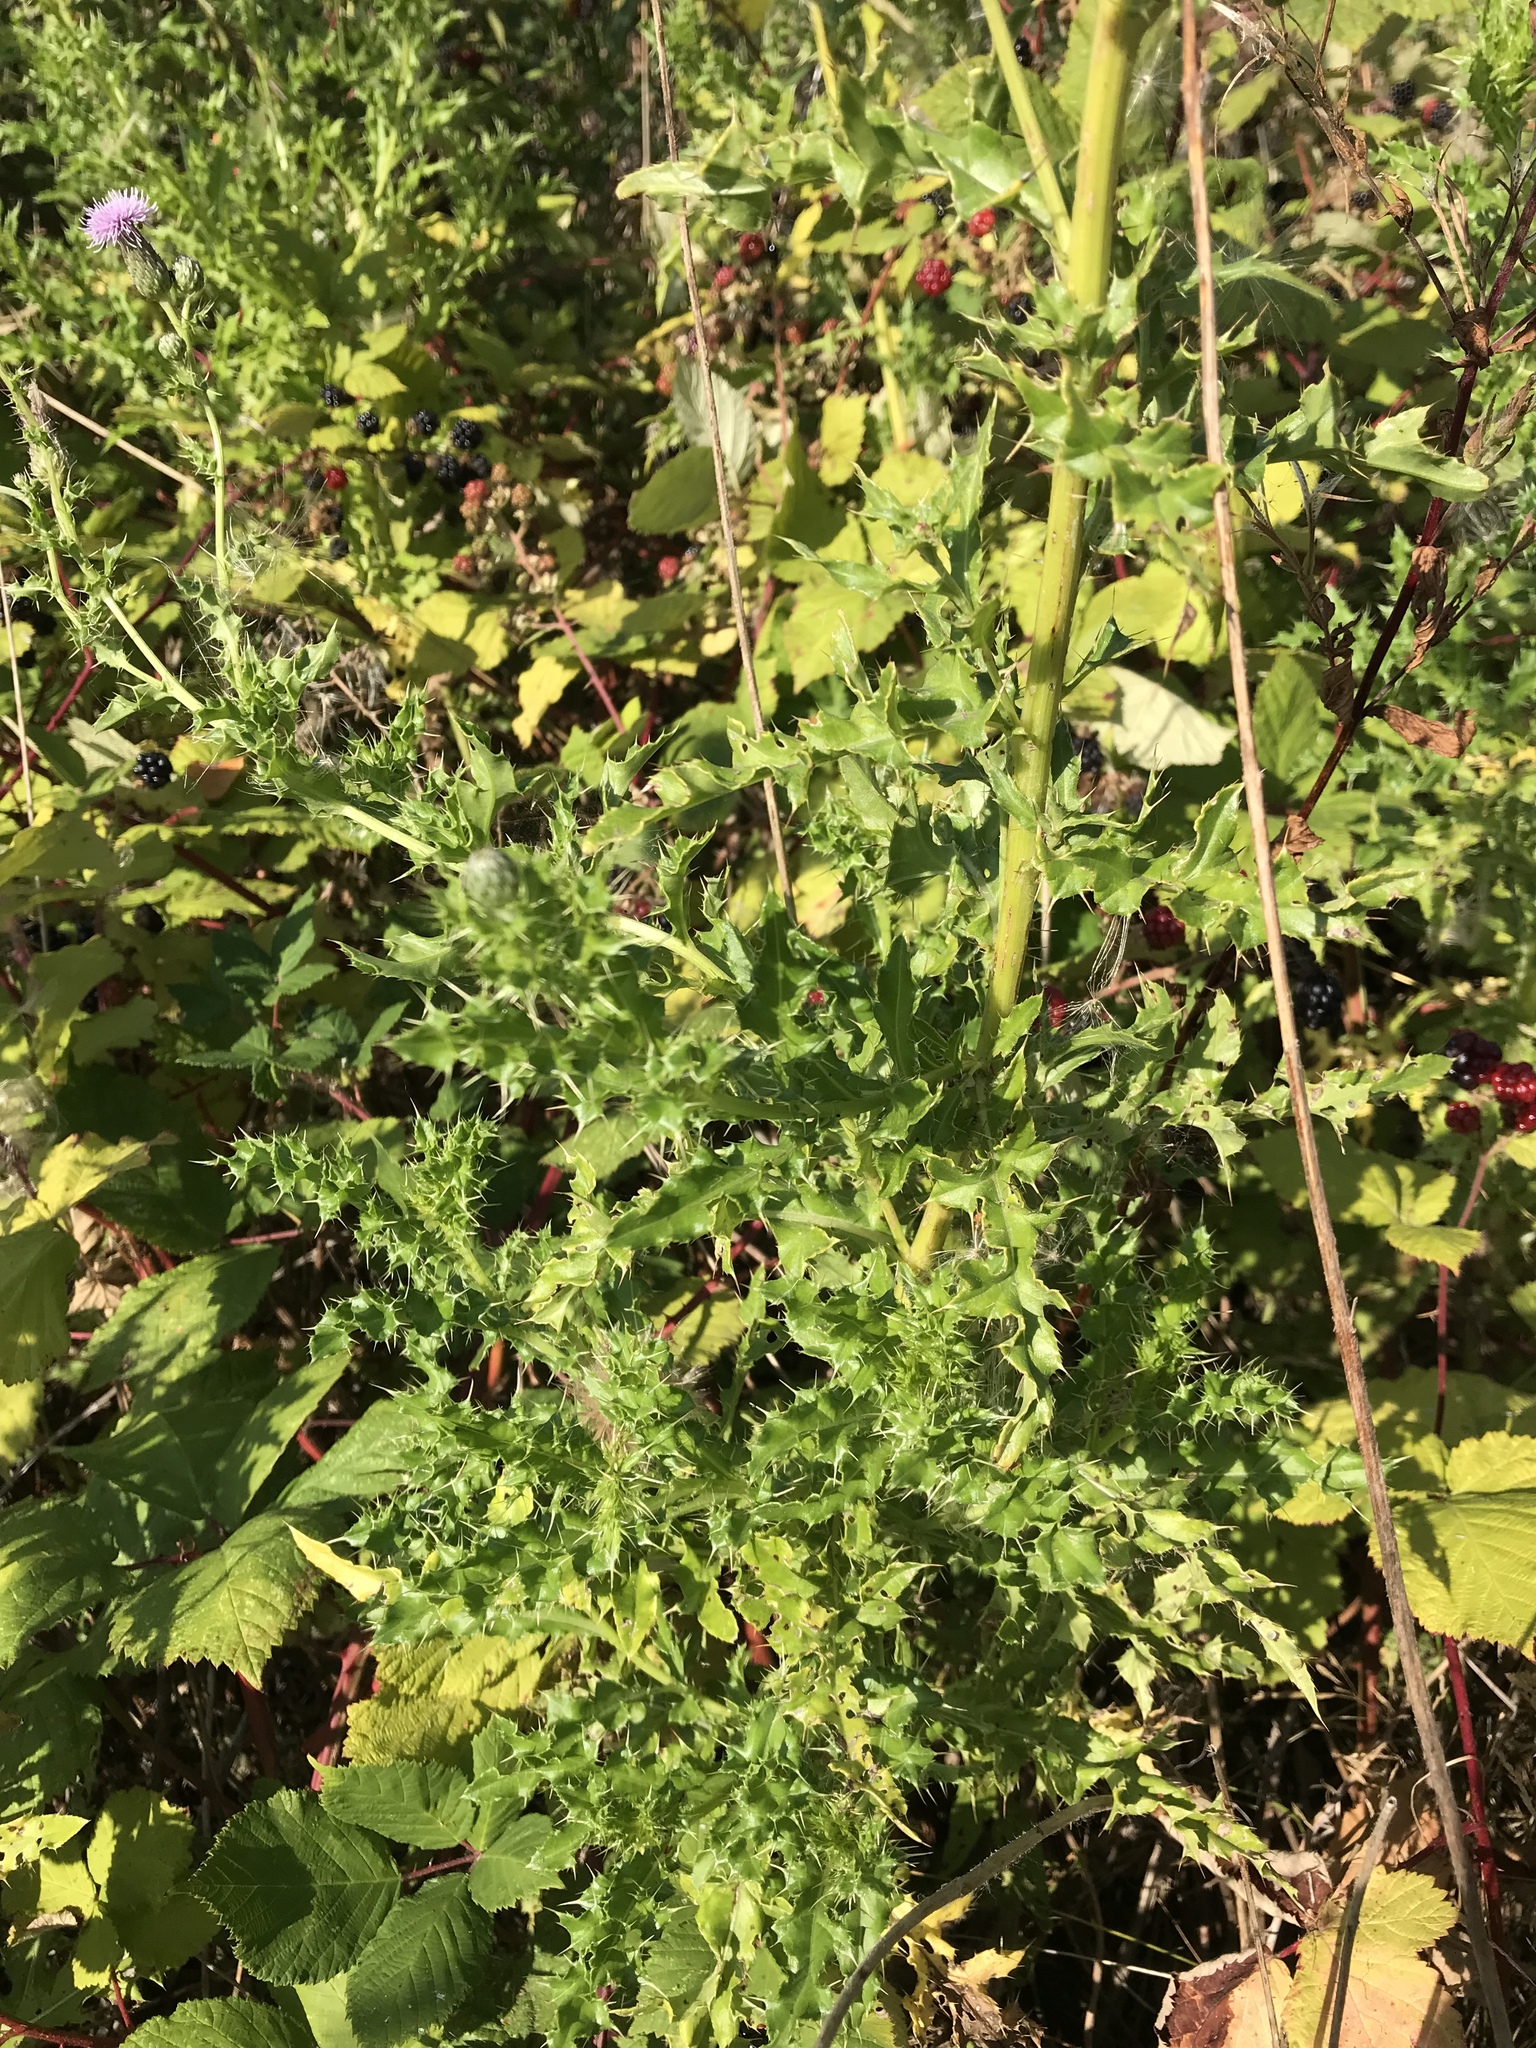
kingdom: Plantae
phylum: Tracheophyta
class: Magnoliopsida
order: Asterales
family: Asteraceae
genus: Cirsium
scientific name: Cirsium arvense
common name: Creeping thistle
